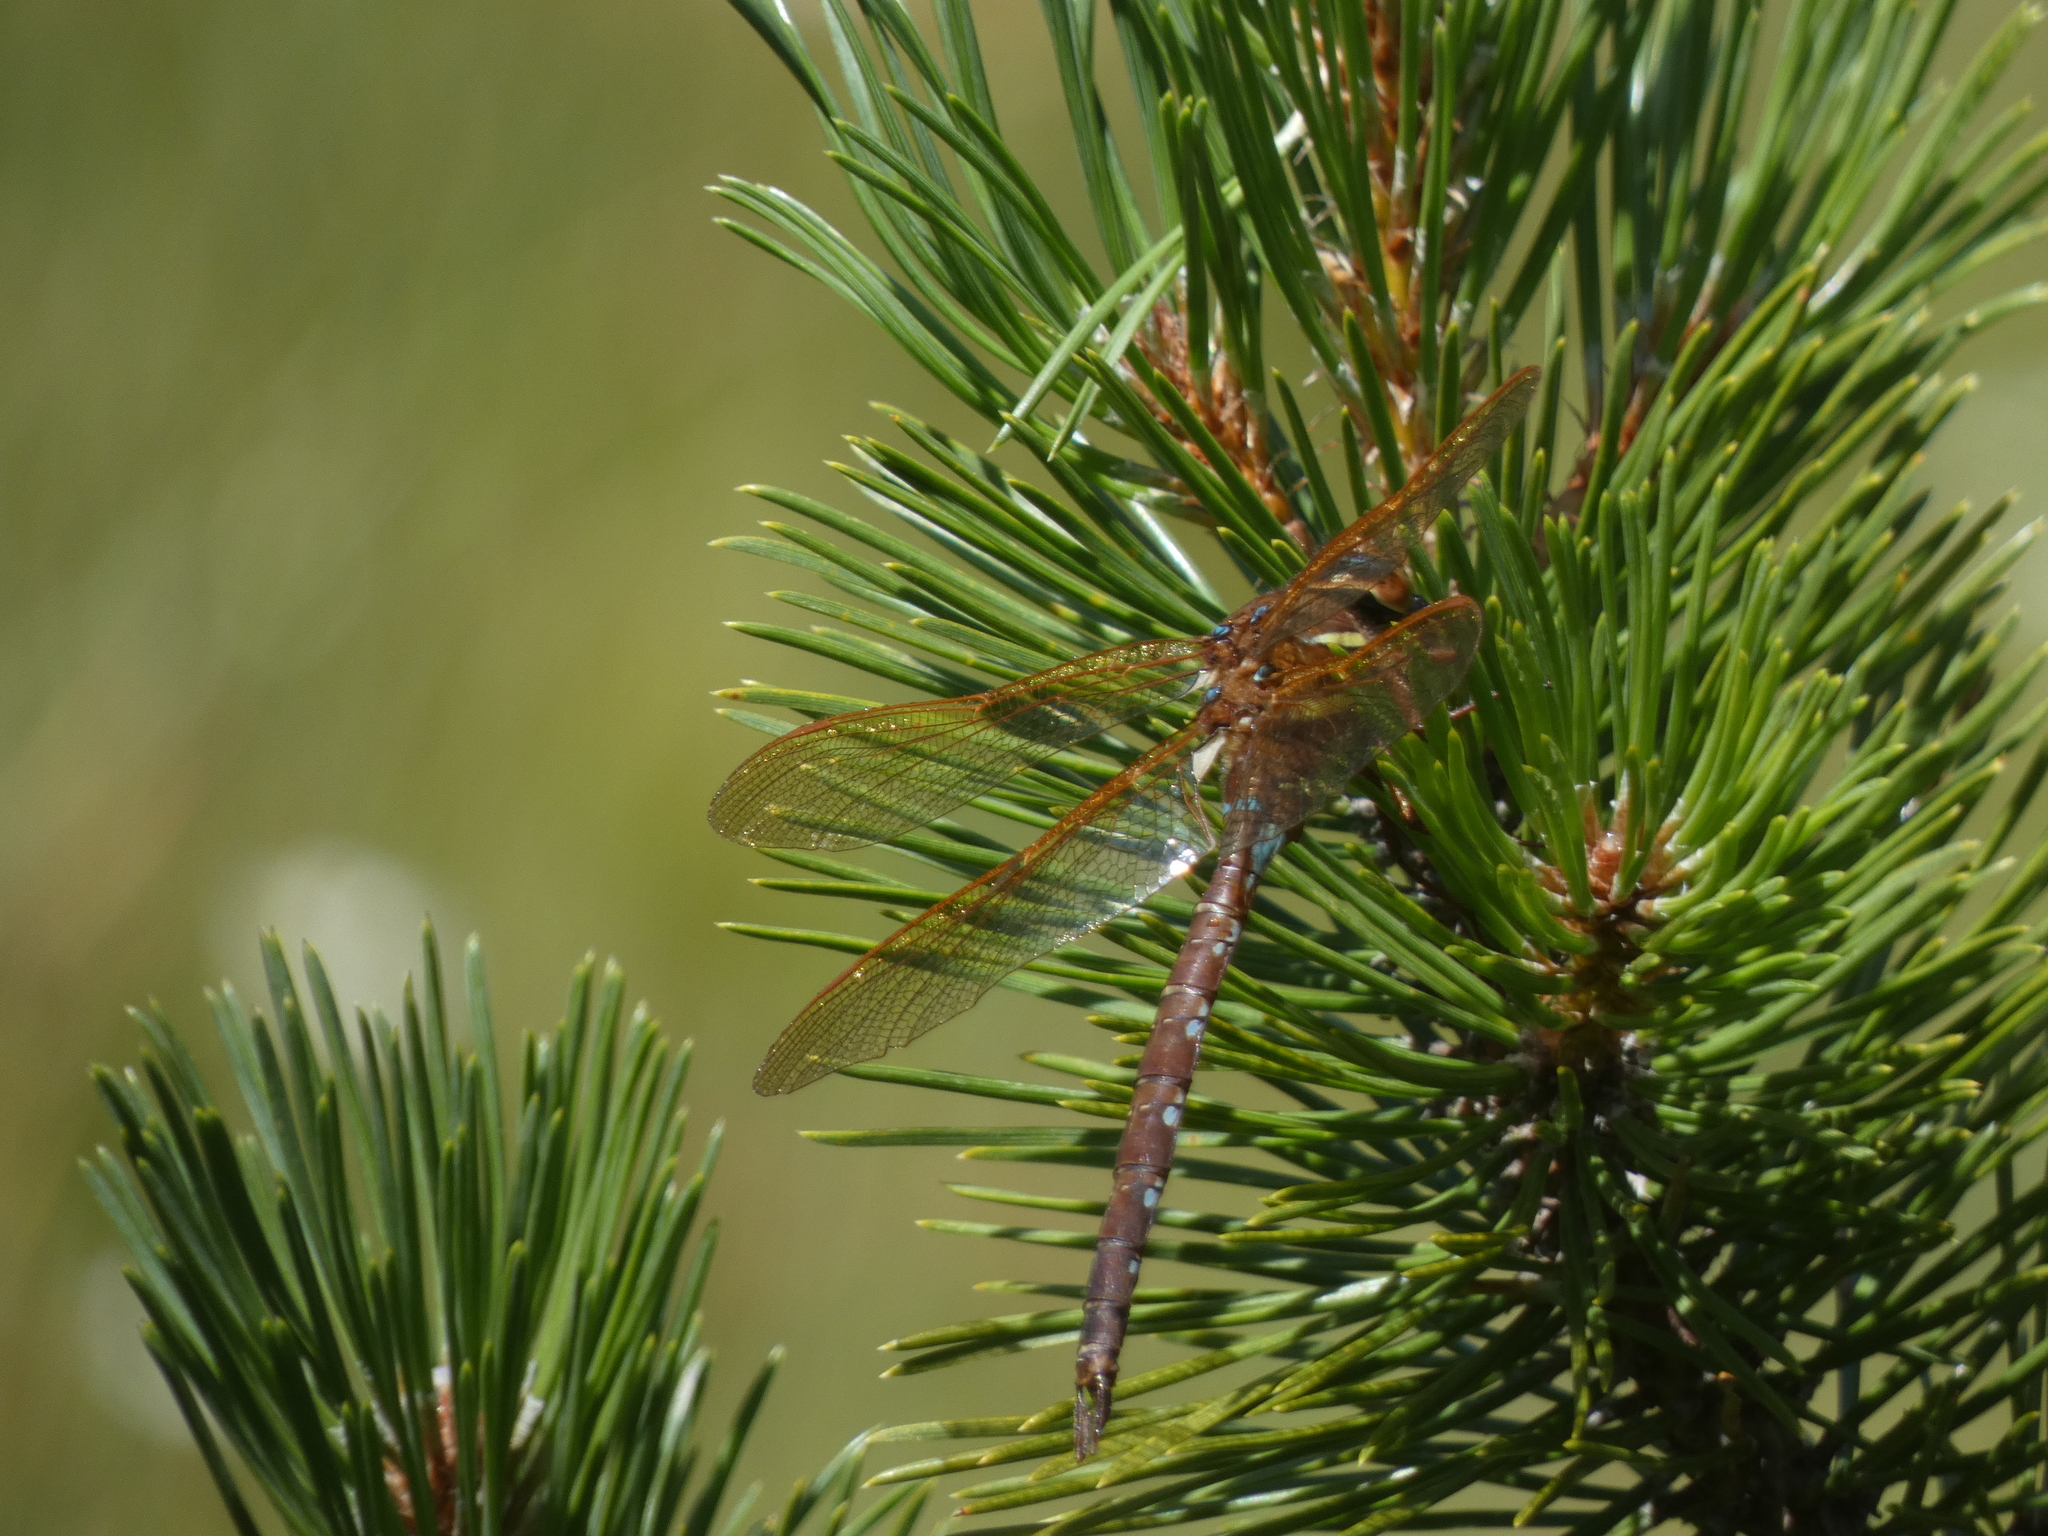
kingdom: Animalia
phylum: Arthropoda
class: Insecta
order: Odonata
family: Aeshnidae
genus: Aeshna
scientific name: Aeshna grandis
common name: Brown hawker
